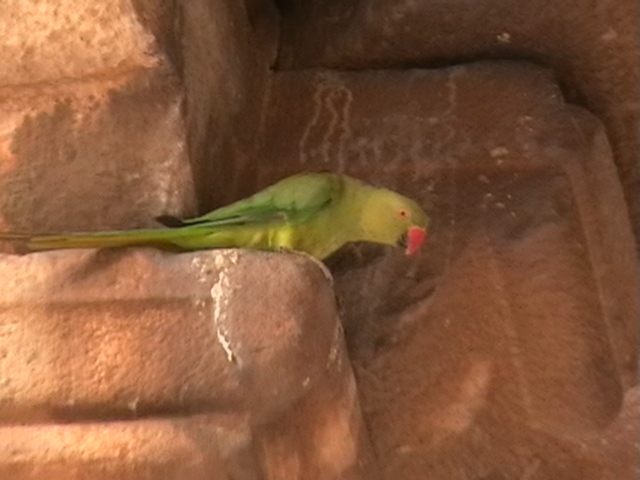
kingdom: Animalia
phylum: Chordata
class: Aves
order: Psittaciformes
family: Psittacidae
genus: Psittacula
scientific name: Psittacula krameri
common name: Rose-ringed parakeet
